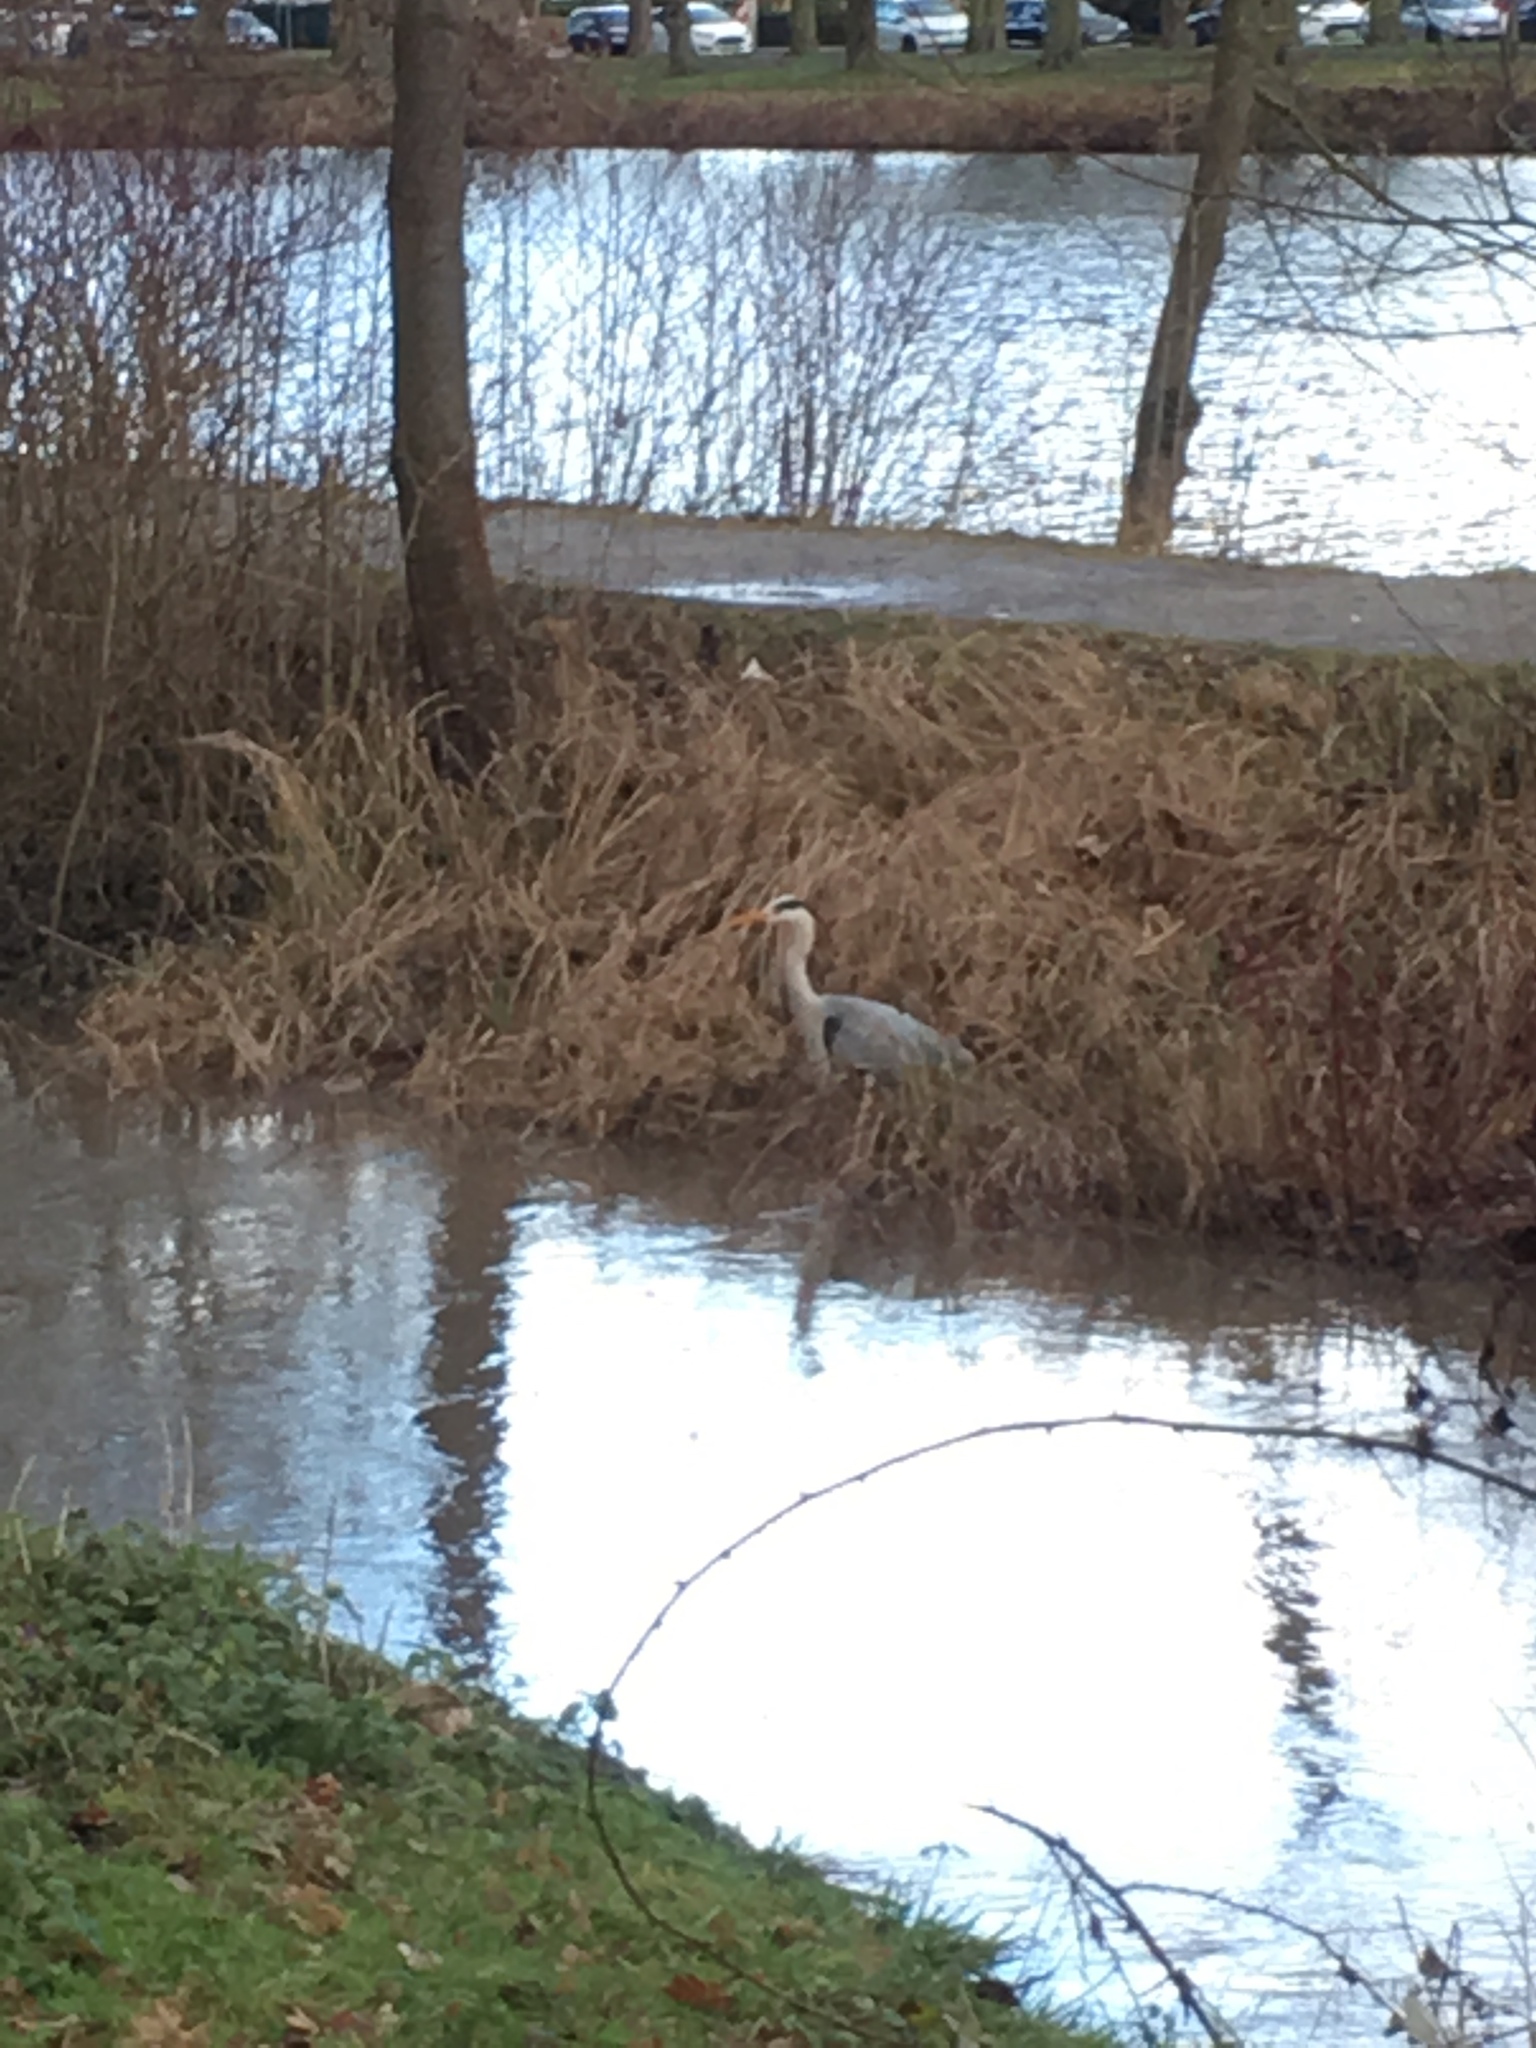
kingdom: Animalia
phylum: Chordata
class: Aves
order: Pelecaniformes
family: Ardeidae
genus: Ardea
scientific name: Ardea cinerea
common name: Grey heron
